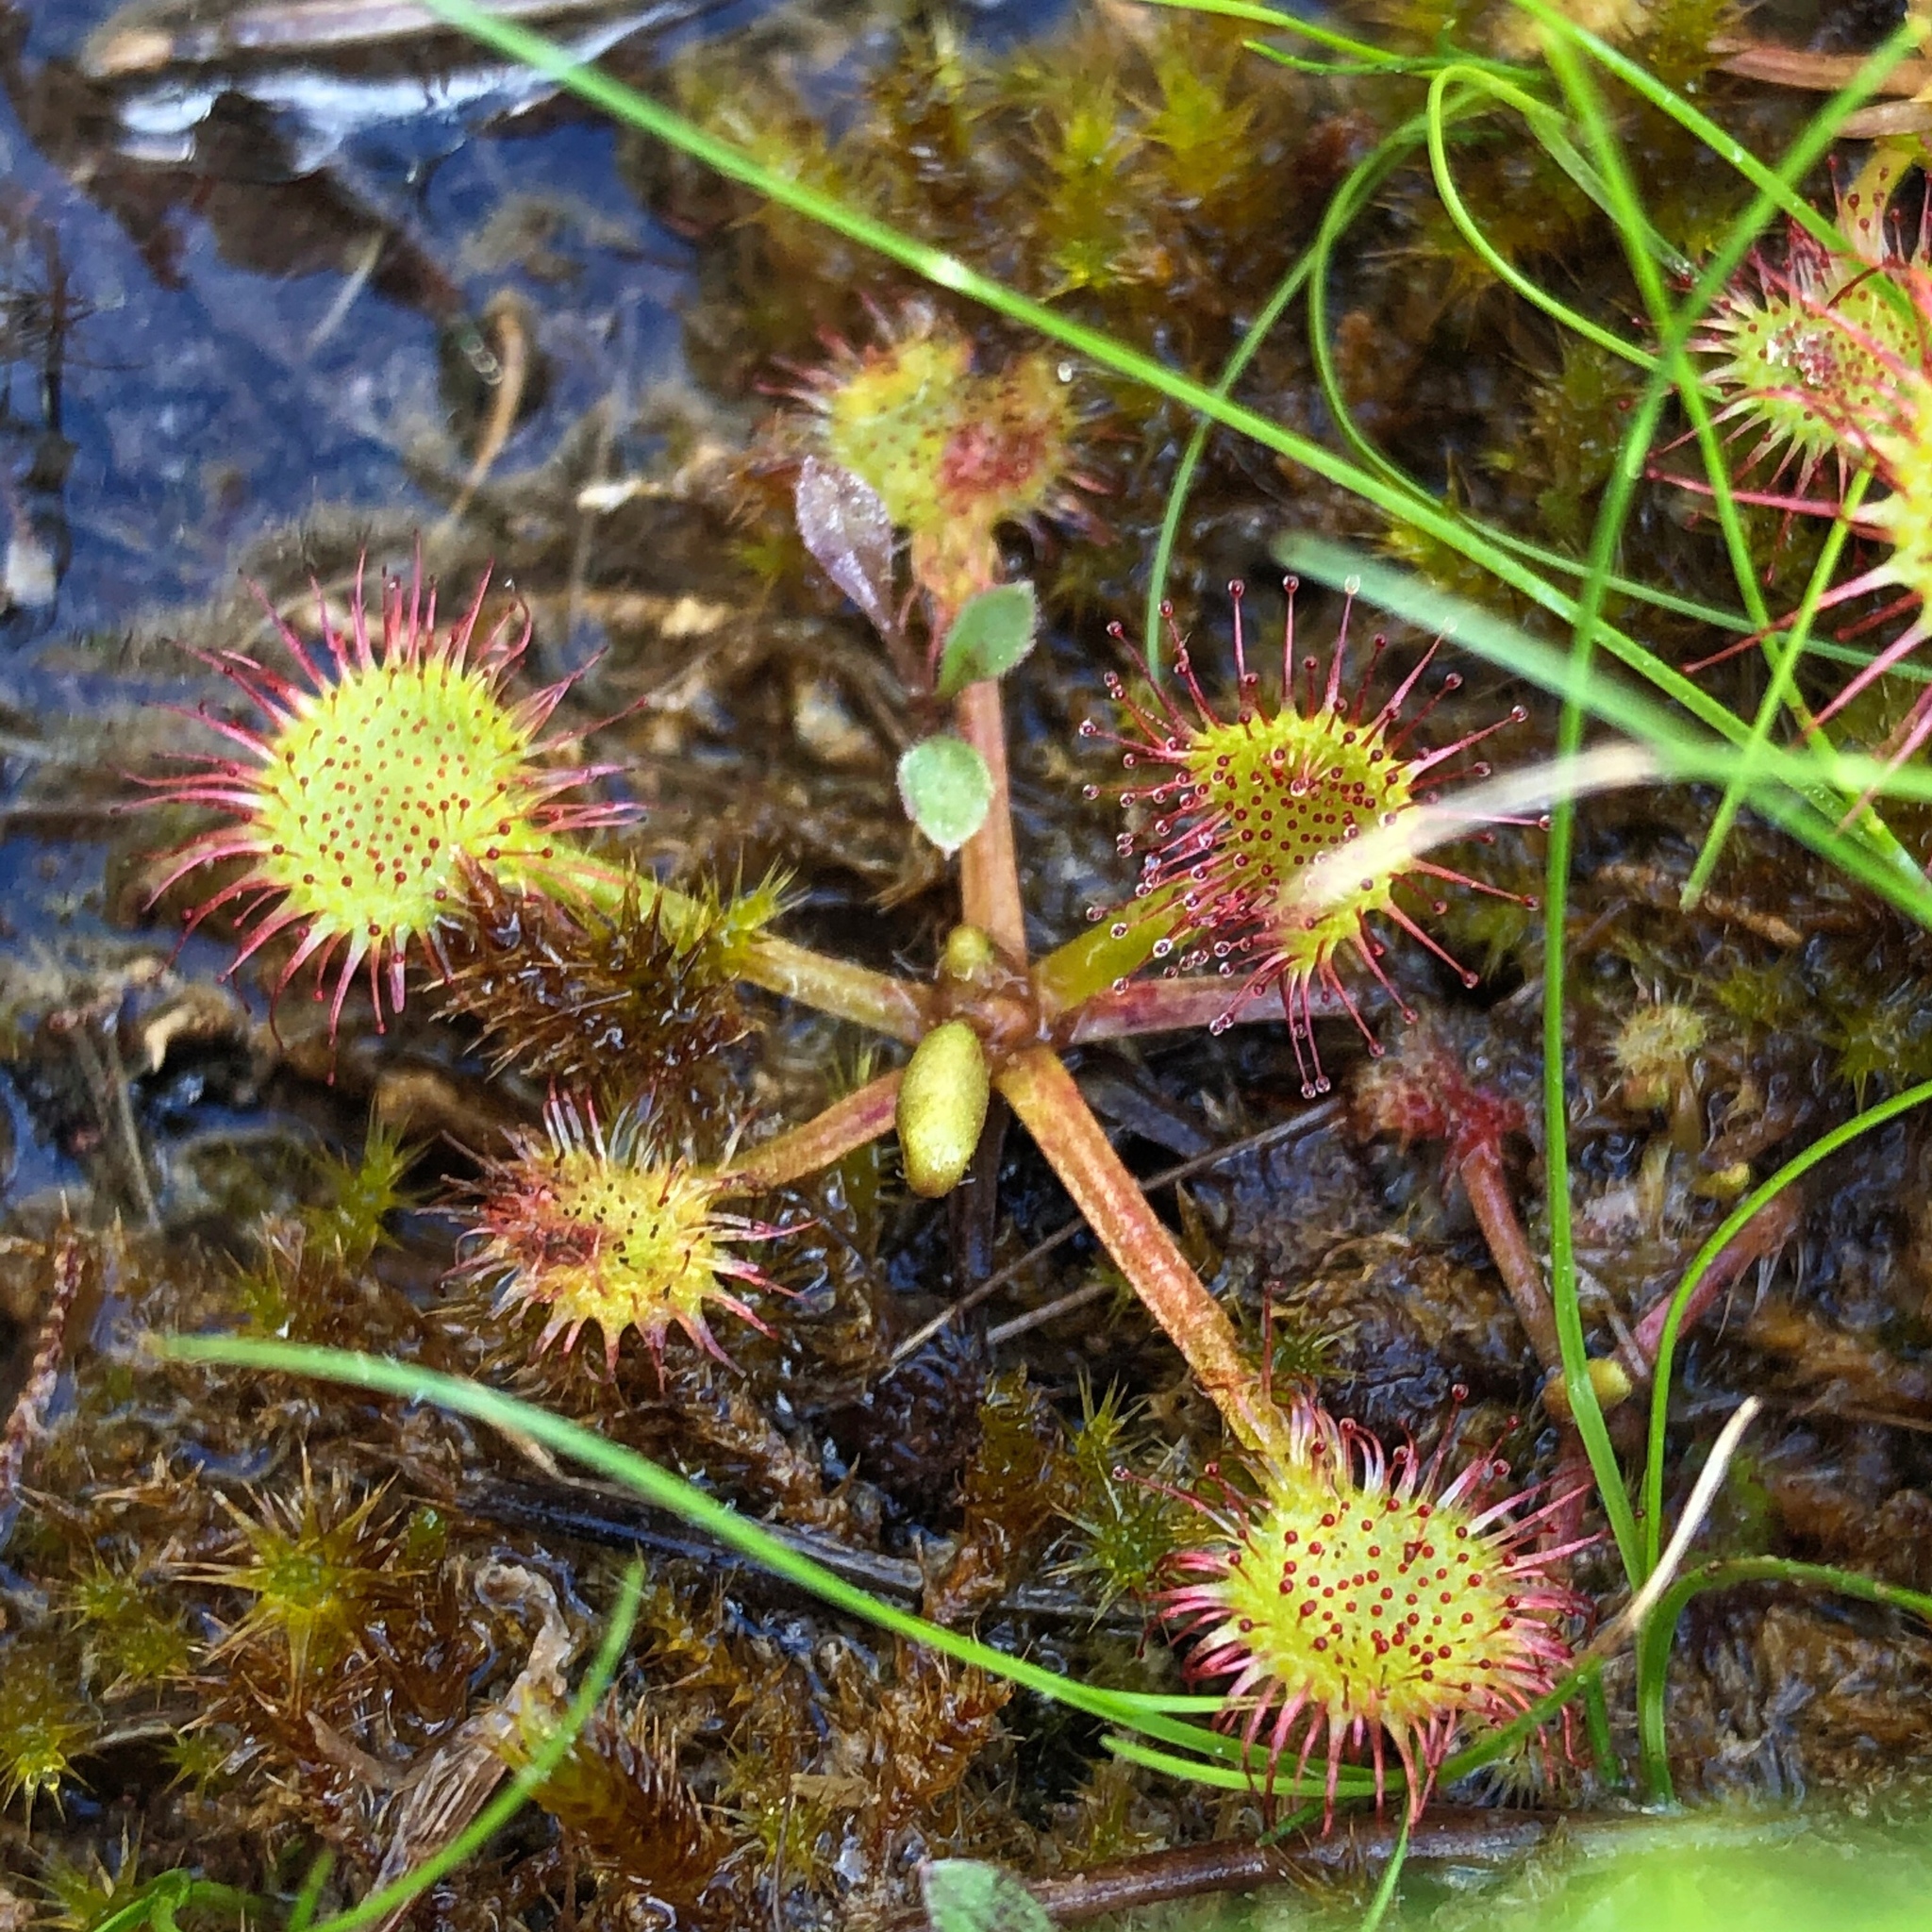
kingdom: Plantae
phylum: Tracheophyta
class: Magnoliopsida
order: Caryophyllales
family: Droseraceae
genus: Drosera
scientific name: Drosera rotundifolia
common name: Round-leaved sundew
